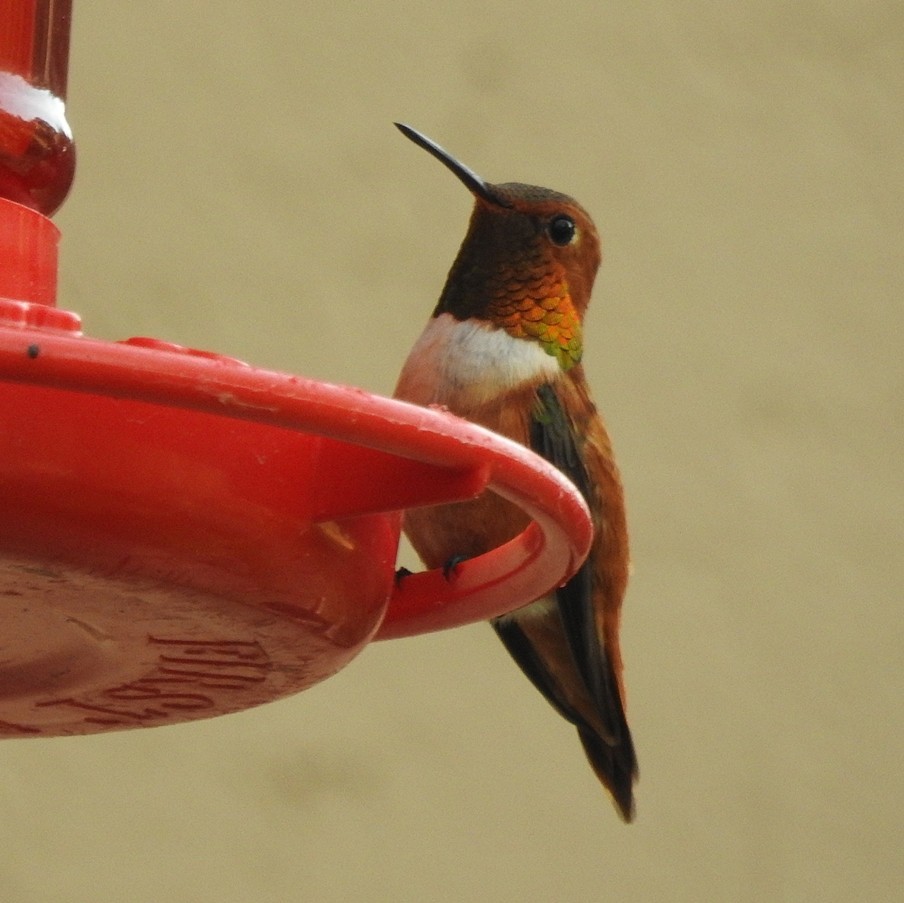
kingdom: Animalia
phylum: Chordata
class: Aves
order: Apodiformes
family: Trochilidae
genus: Selasphorus
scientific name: Selasphorus rufus
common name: Rufous hummingbird
